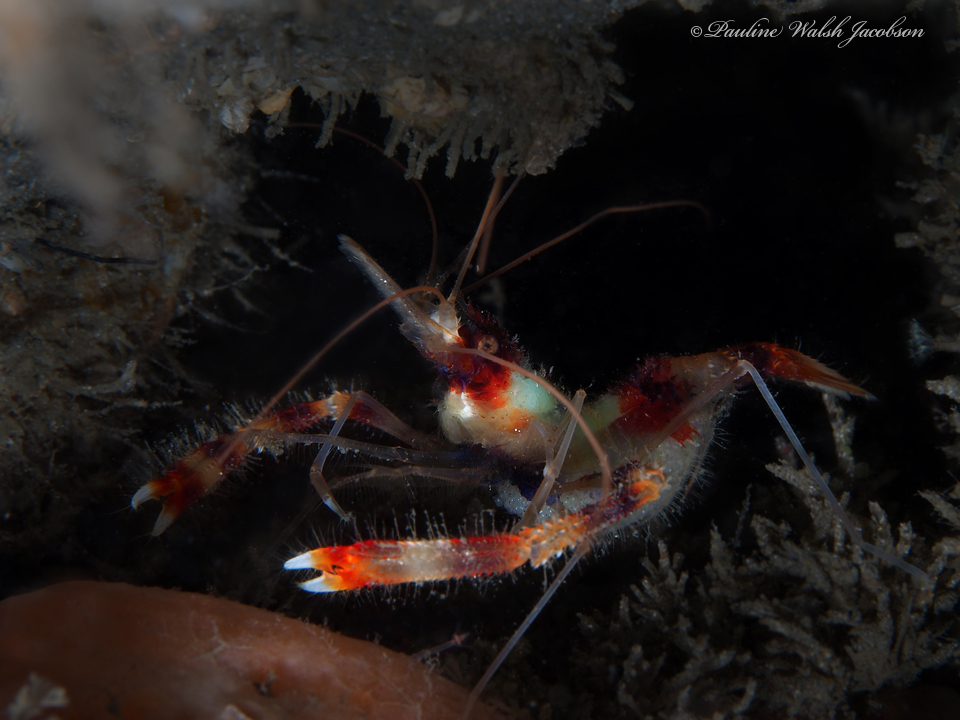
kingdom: Animalia
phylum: Arthropoda
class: Malacostraca
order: Decapoda
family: Stenopodidae
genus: Stenopus
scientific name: Stenopus hispidus
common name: Banded coral shrimp
